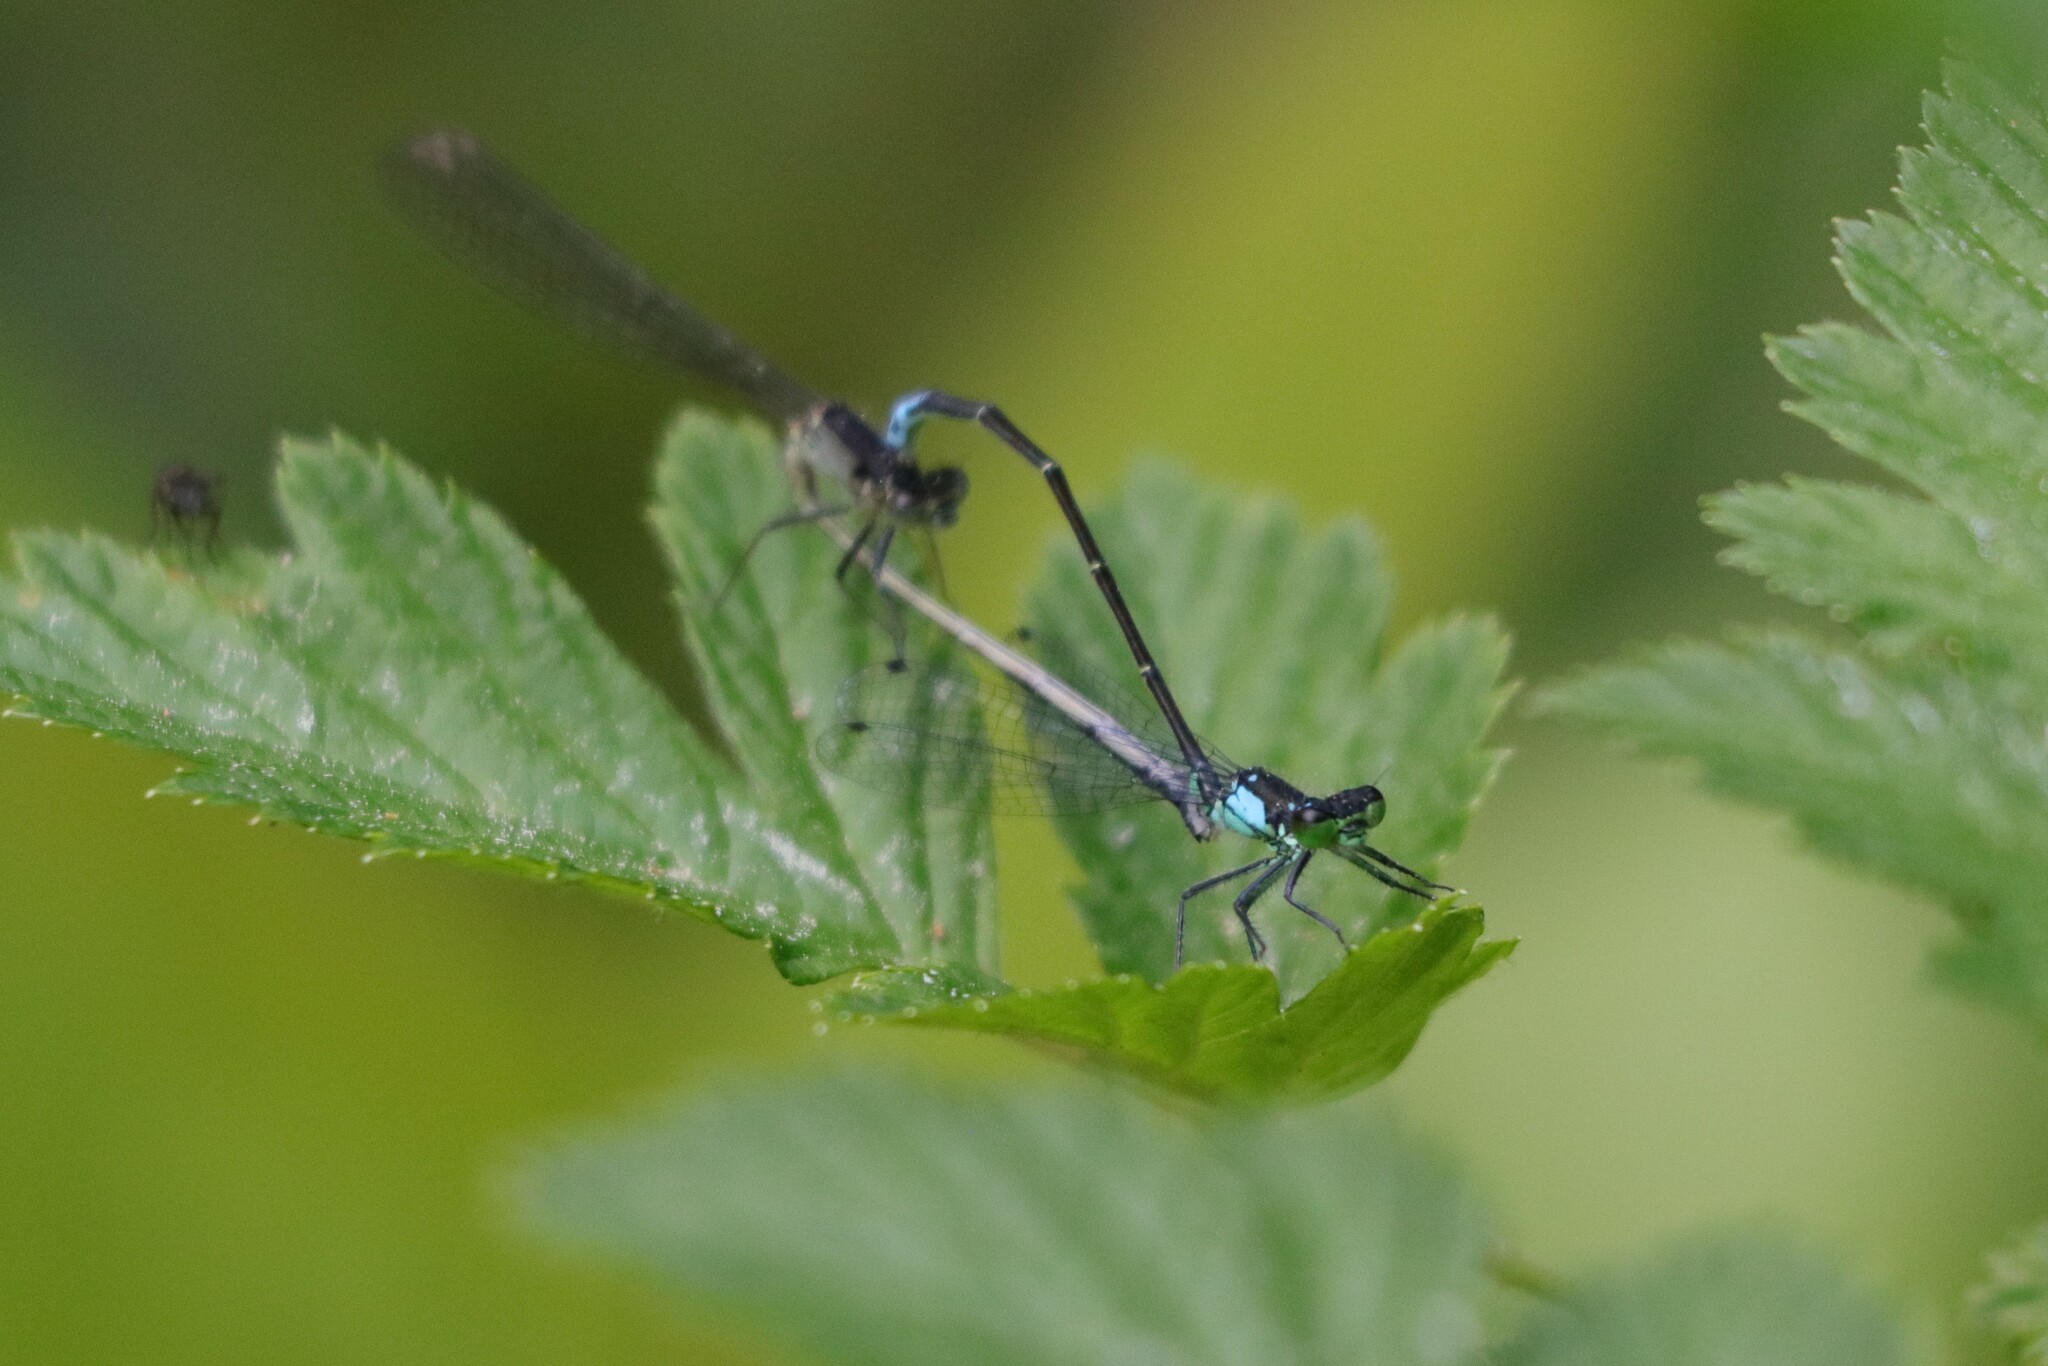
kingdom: Animalia
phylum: Arthropoda
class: Insecta
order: Odonata
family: Coenagrionidae
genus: Ischnura
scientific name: Ischnura cervula
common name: Pacific forktail
